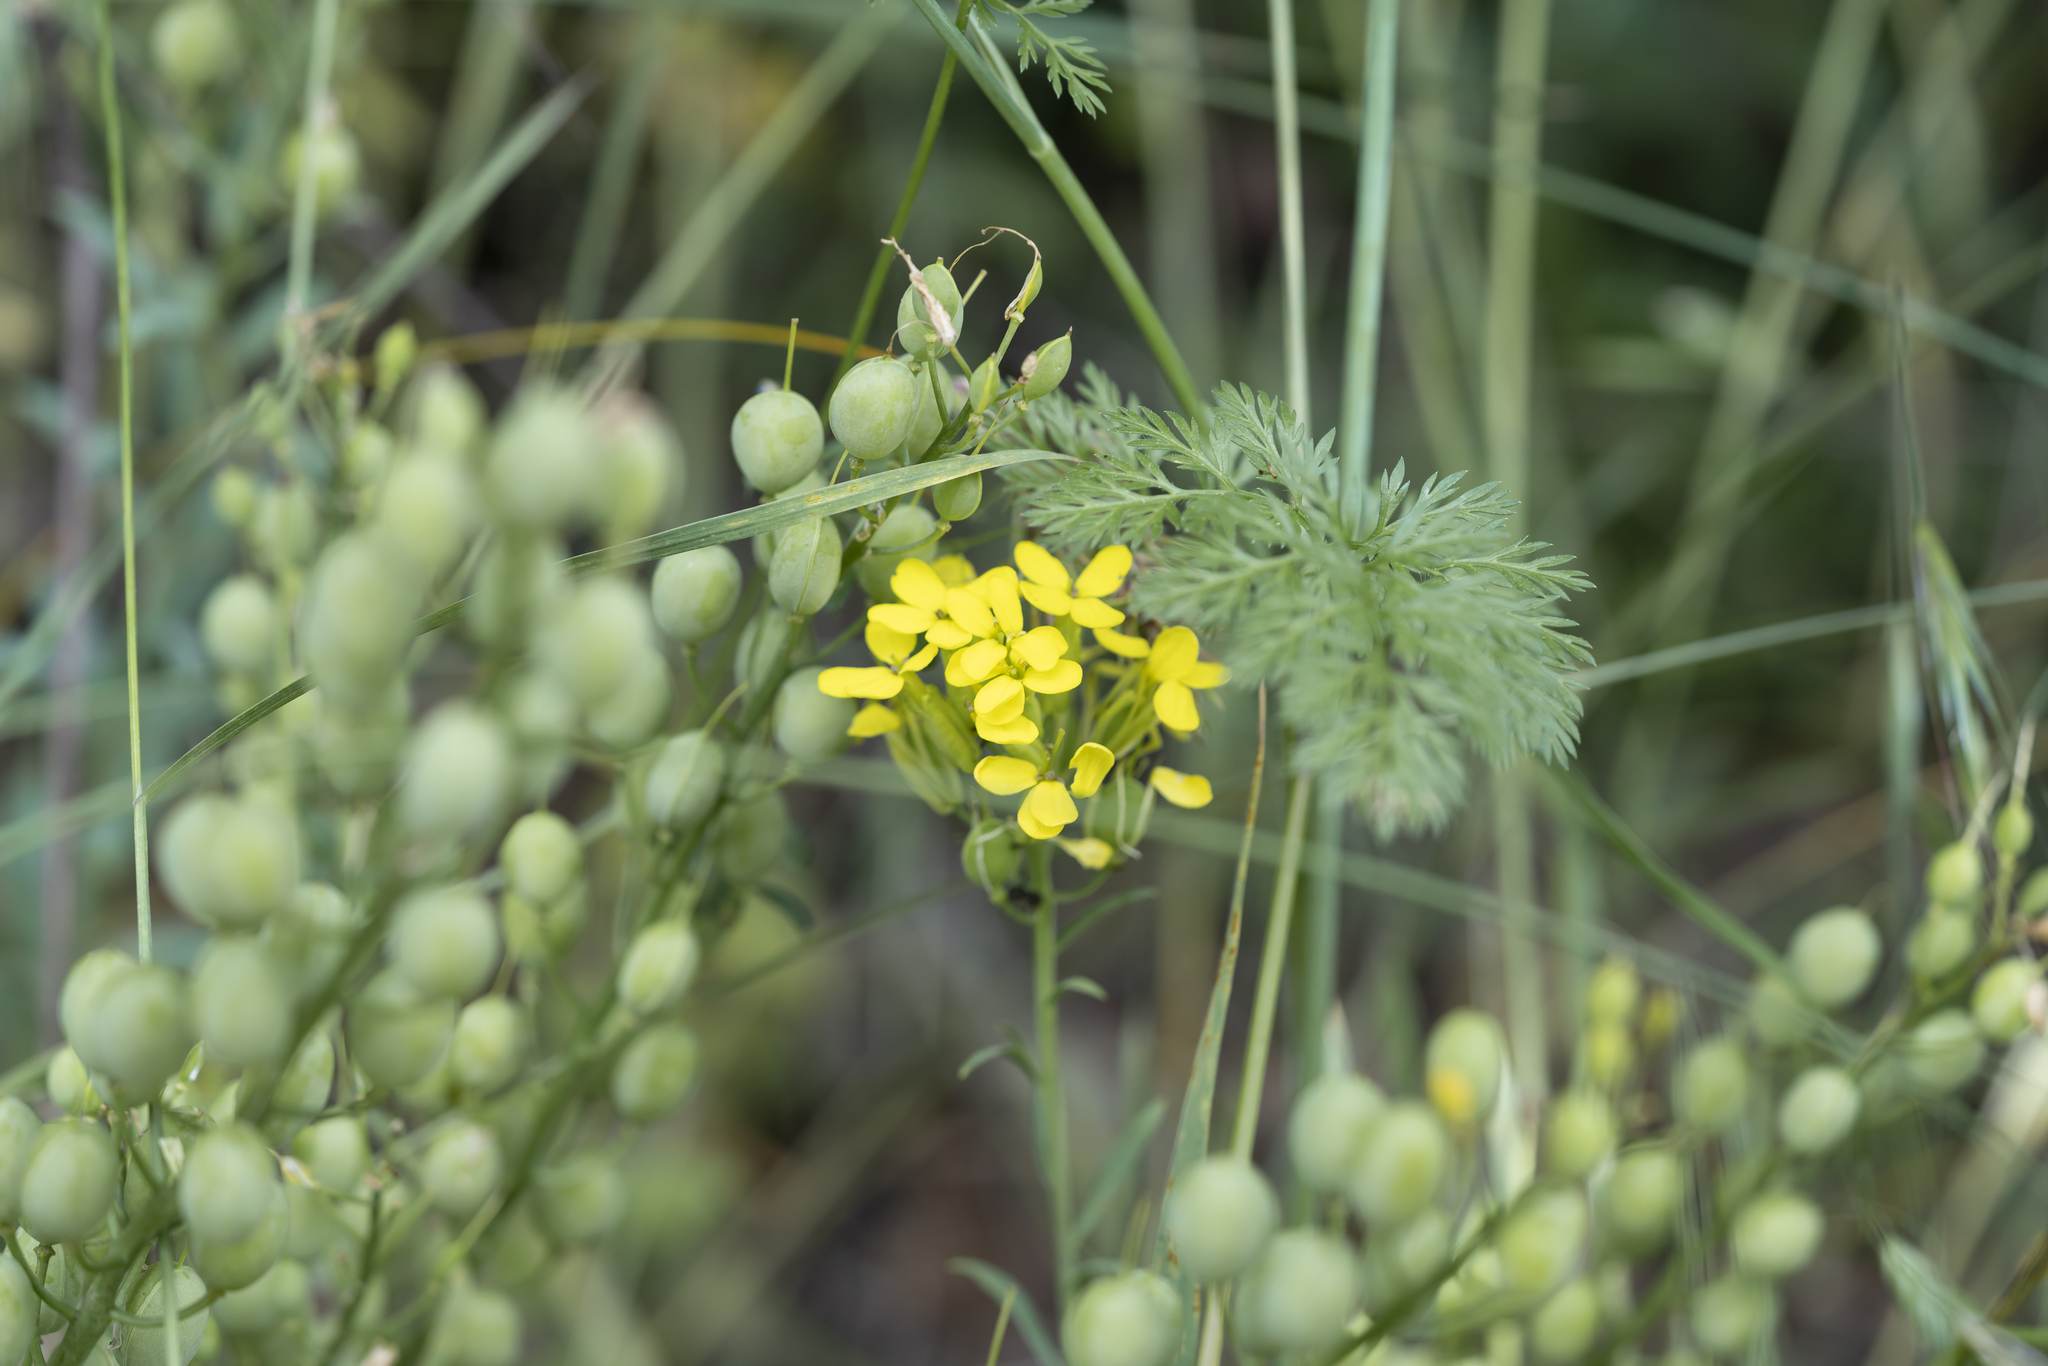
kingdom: Plantae
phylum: Tracheophyta
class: Magnoliopsida
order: Brassicales
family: Brassicaceae
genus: Alyssoides
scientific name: Alyssoides utriculata
